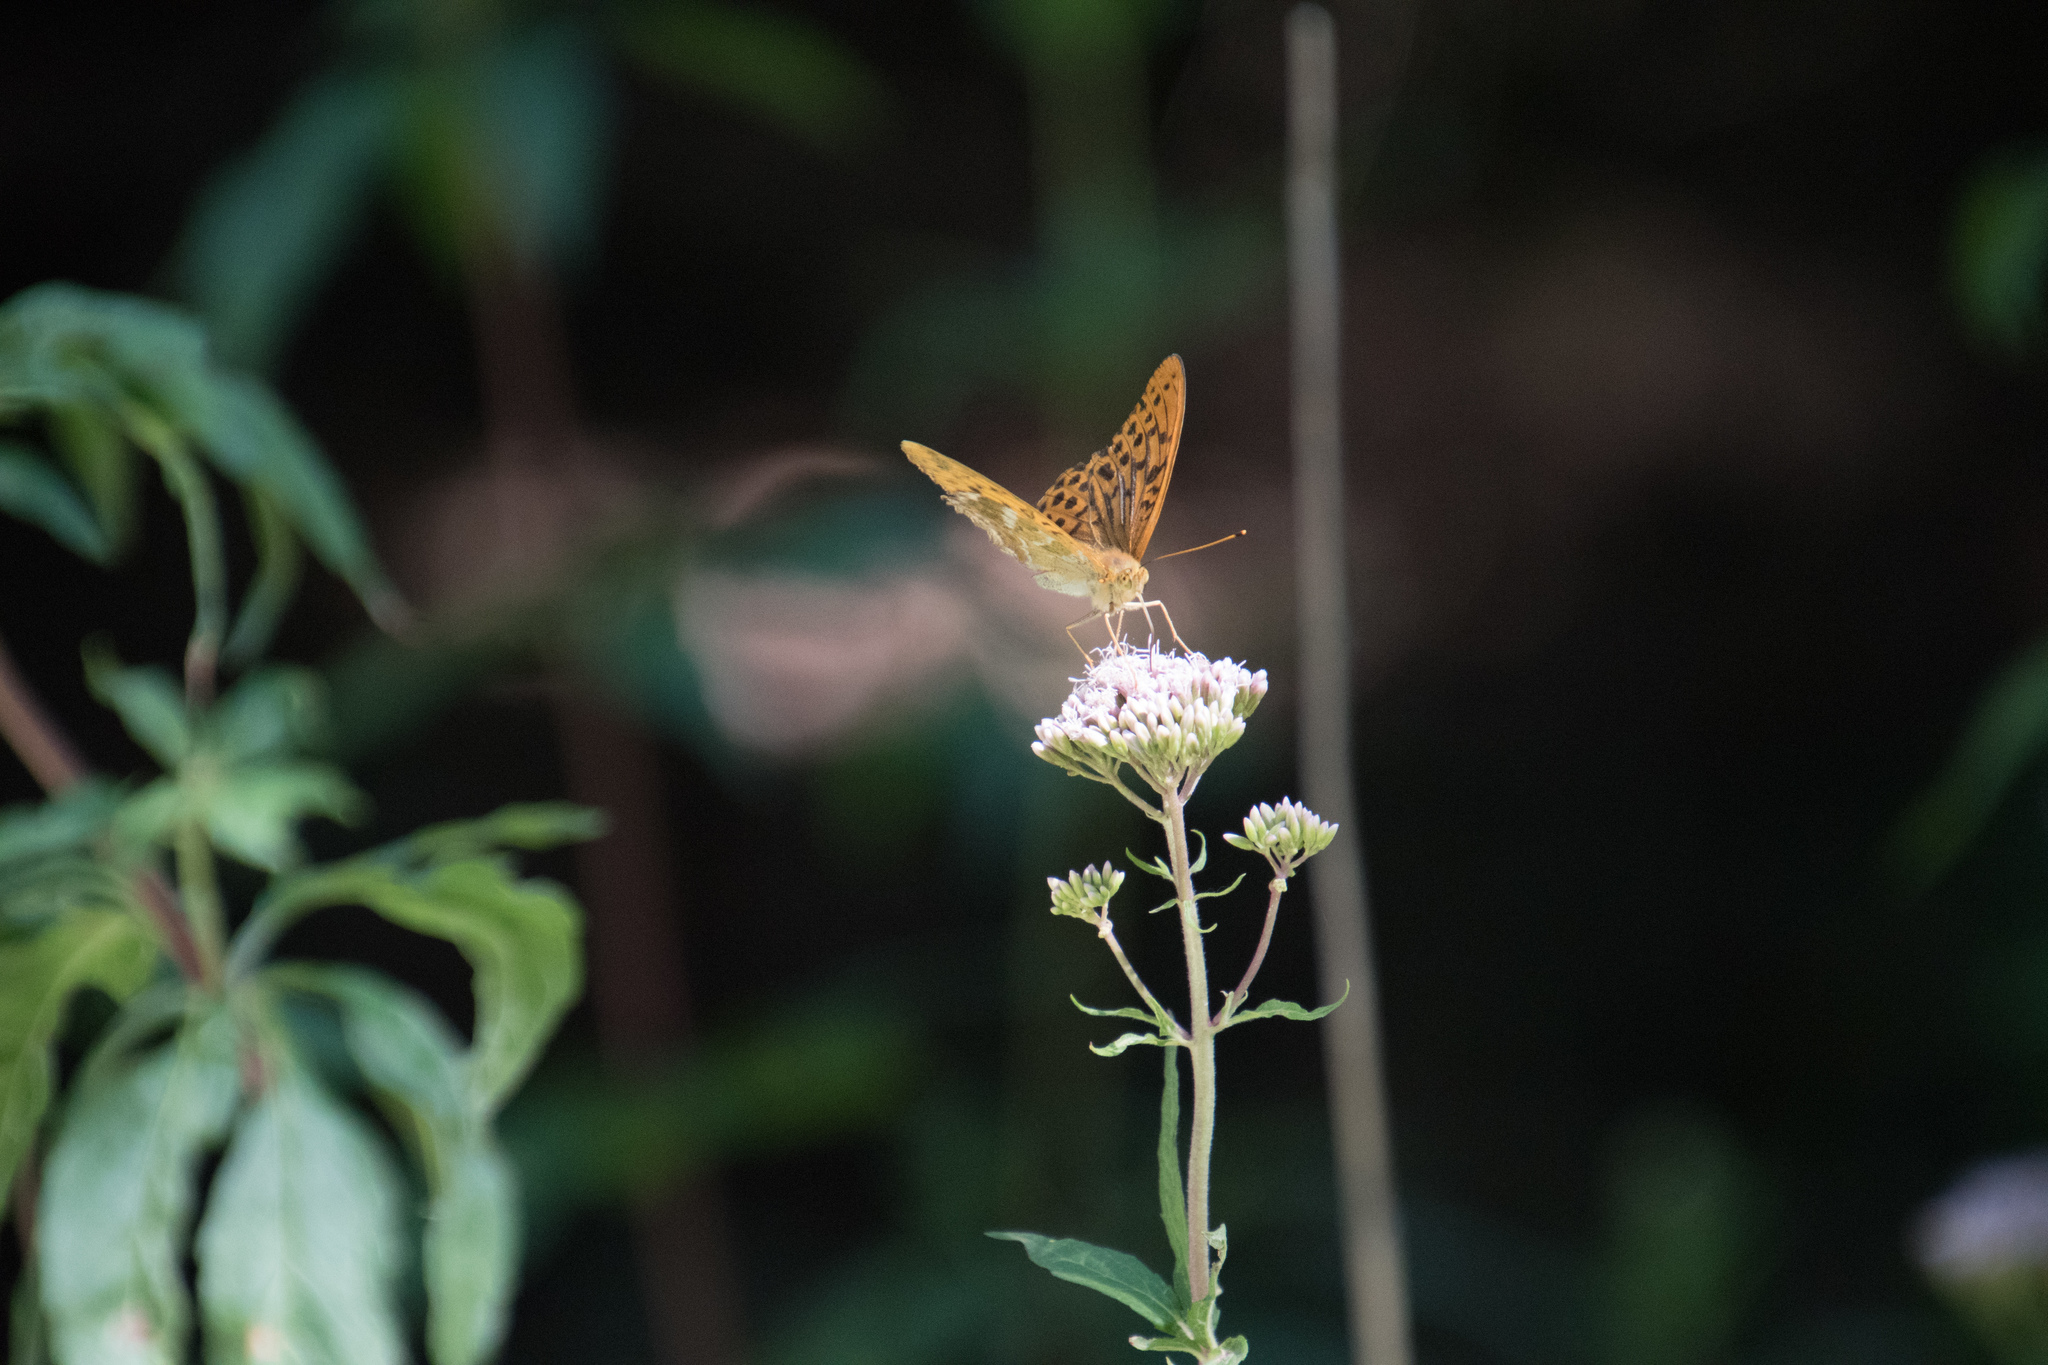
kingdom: Animalia
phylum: Arthropoda
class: Insecta
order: Lepidoptera
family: Nymphalidae
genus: Argynnis
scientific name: Argynnis paphia
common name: Silver-washed fritillary
